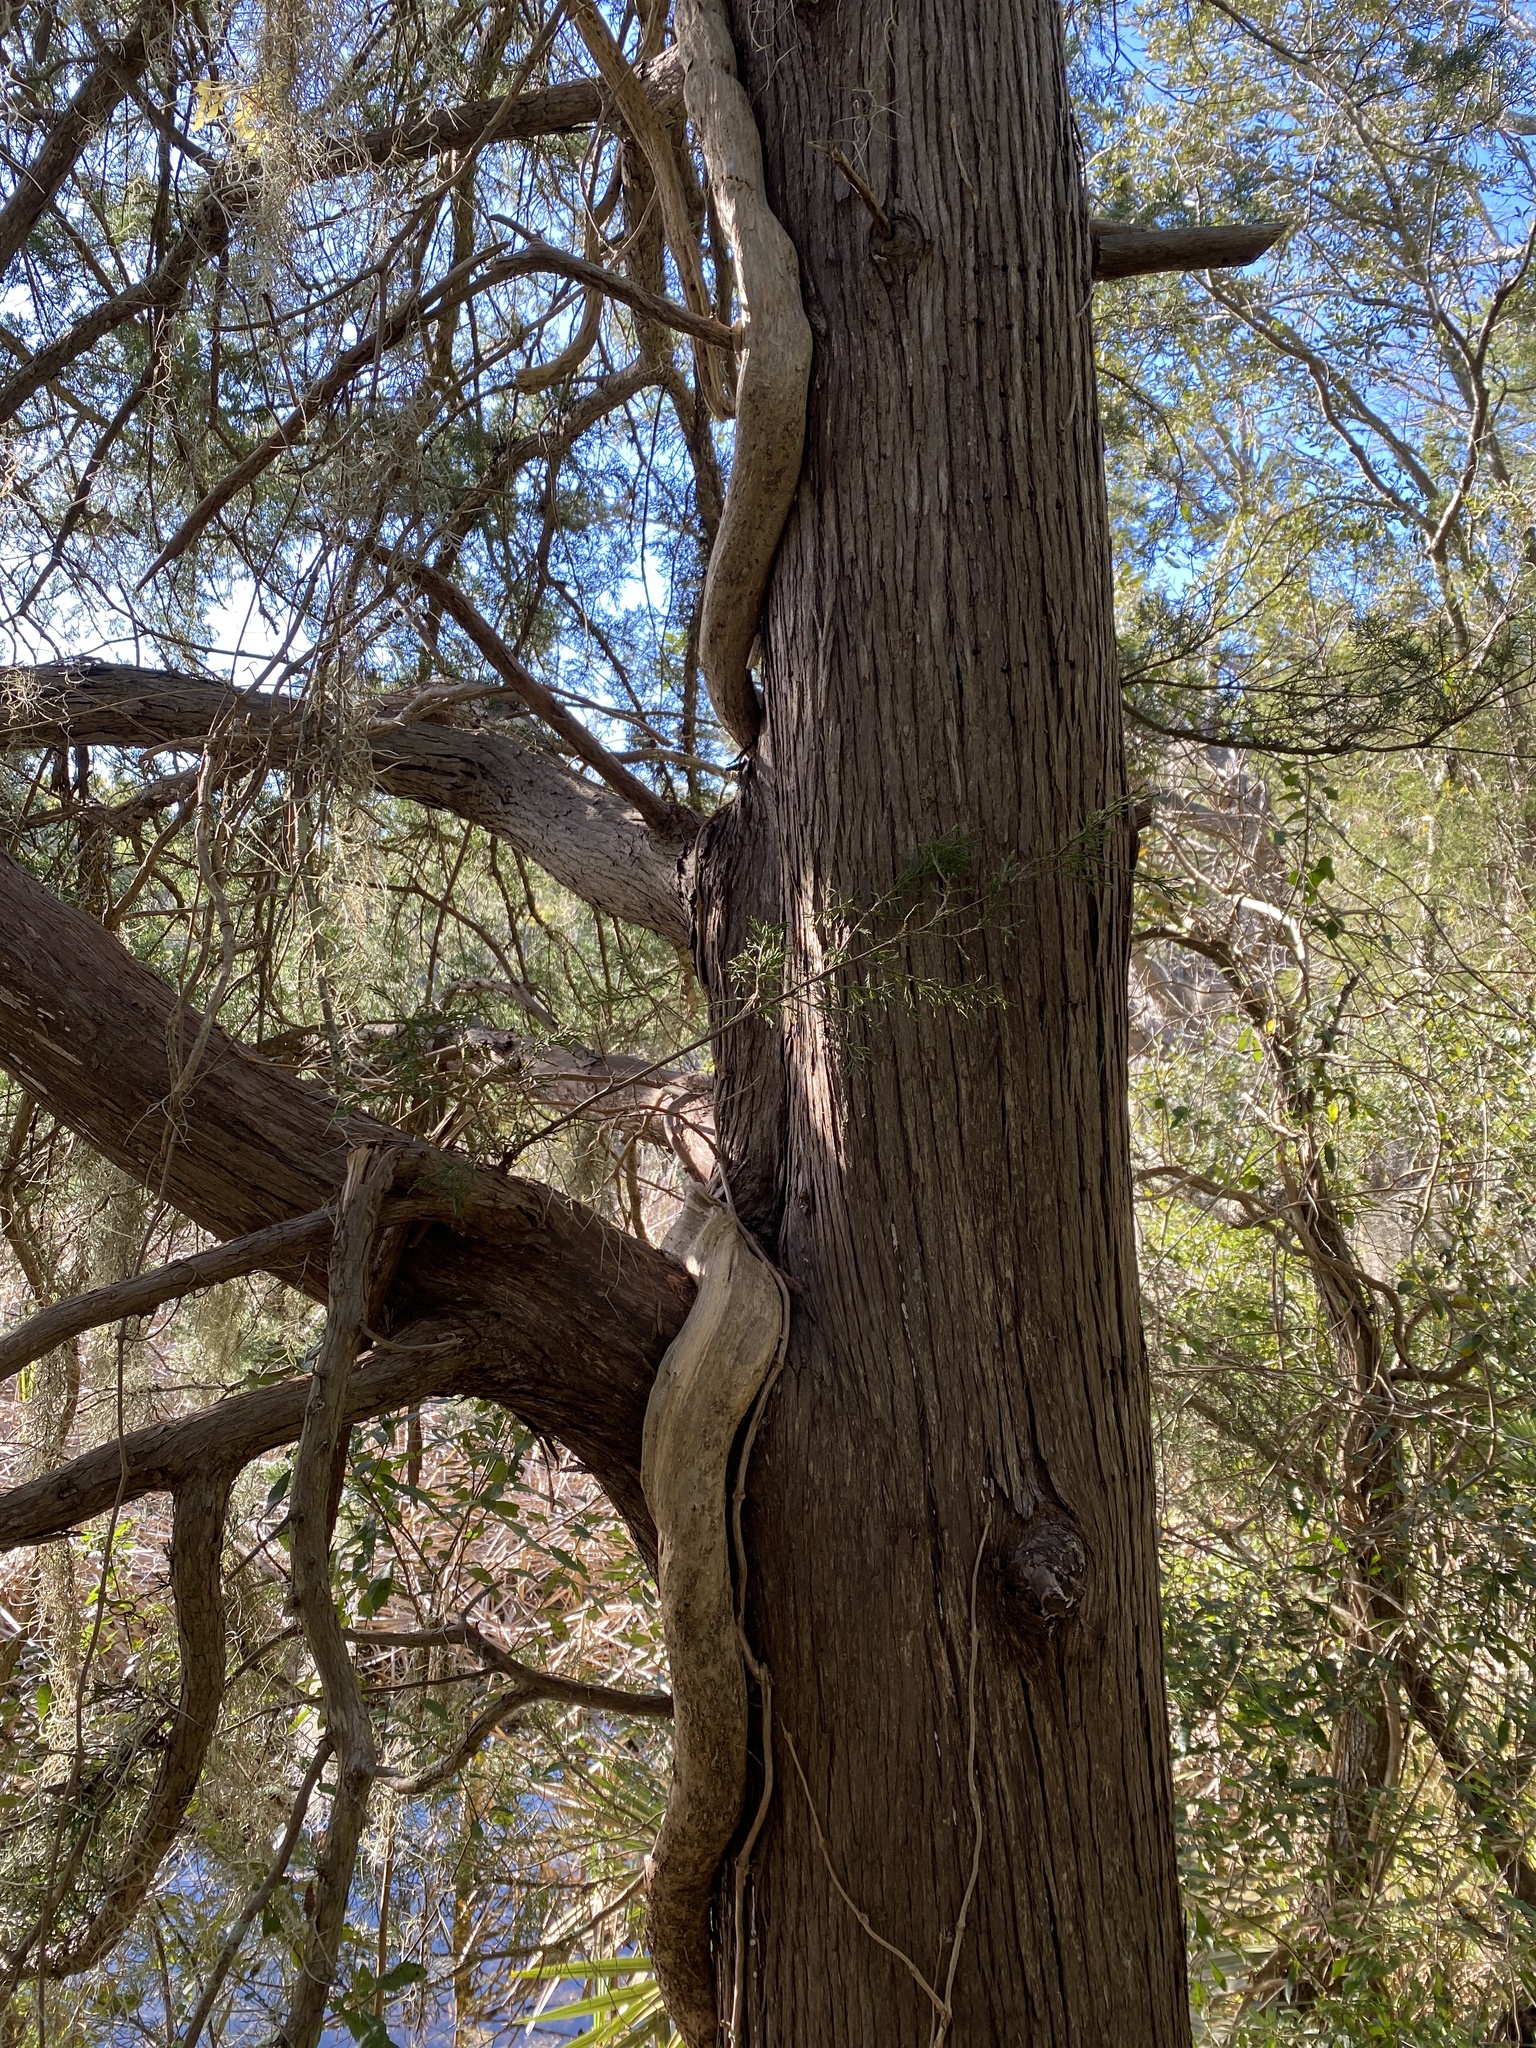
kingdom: Plantae
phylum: Tracheophyta
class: Magnoliopsida
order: Lamiales
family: Bignoniaceae
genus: Campsis
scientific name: Campsis radicans
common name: Trumpet-creeper
